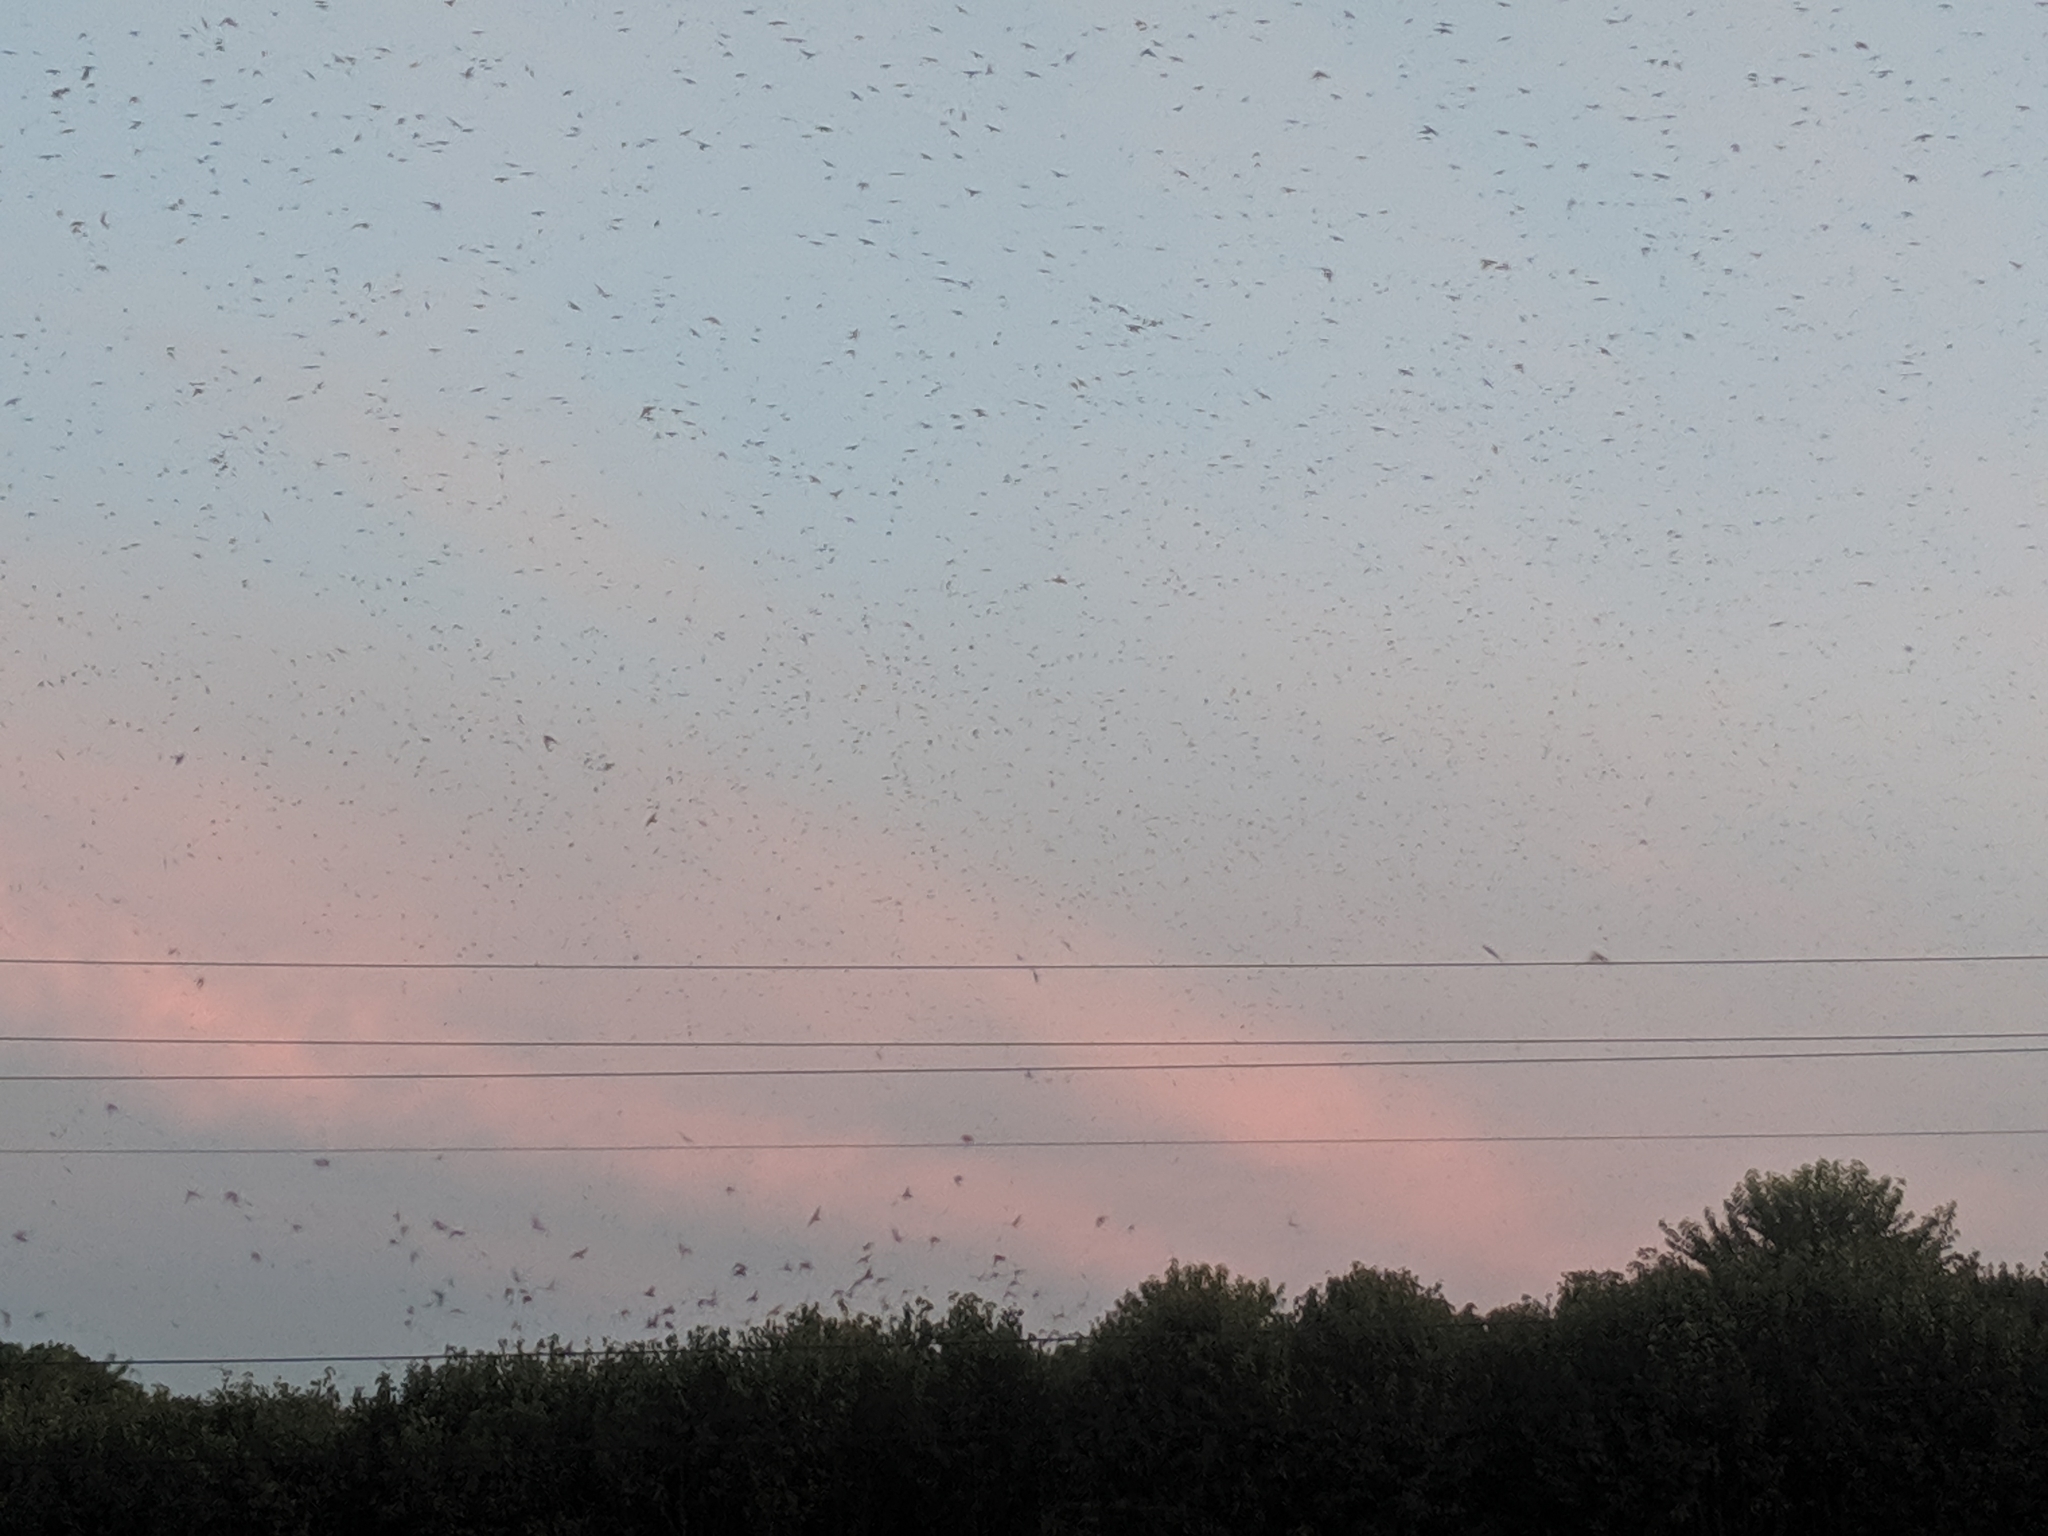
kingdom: Animalia
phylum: Chordata
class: Aves
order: Passeriformes
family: Hirundinidae
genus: Progne
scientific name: Progne subis
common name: Purple martin
